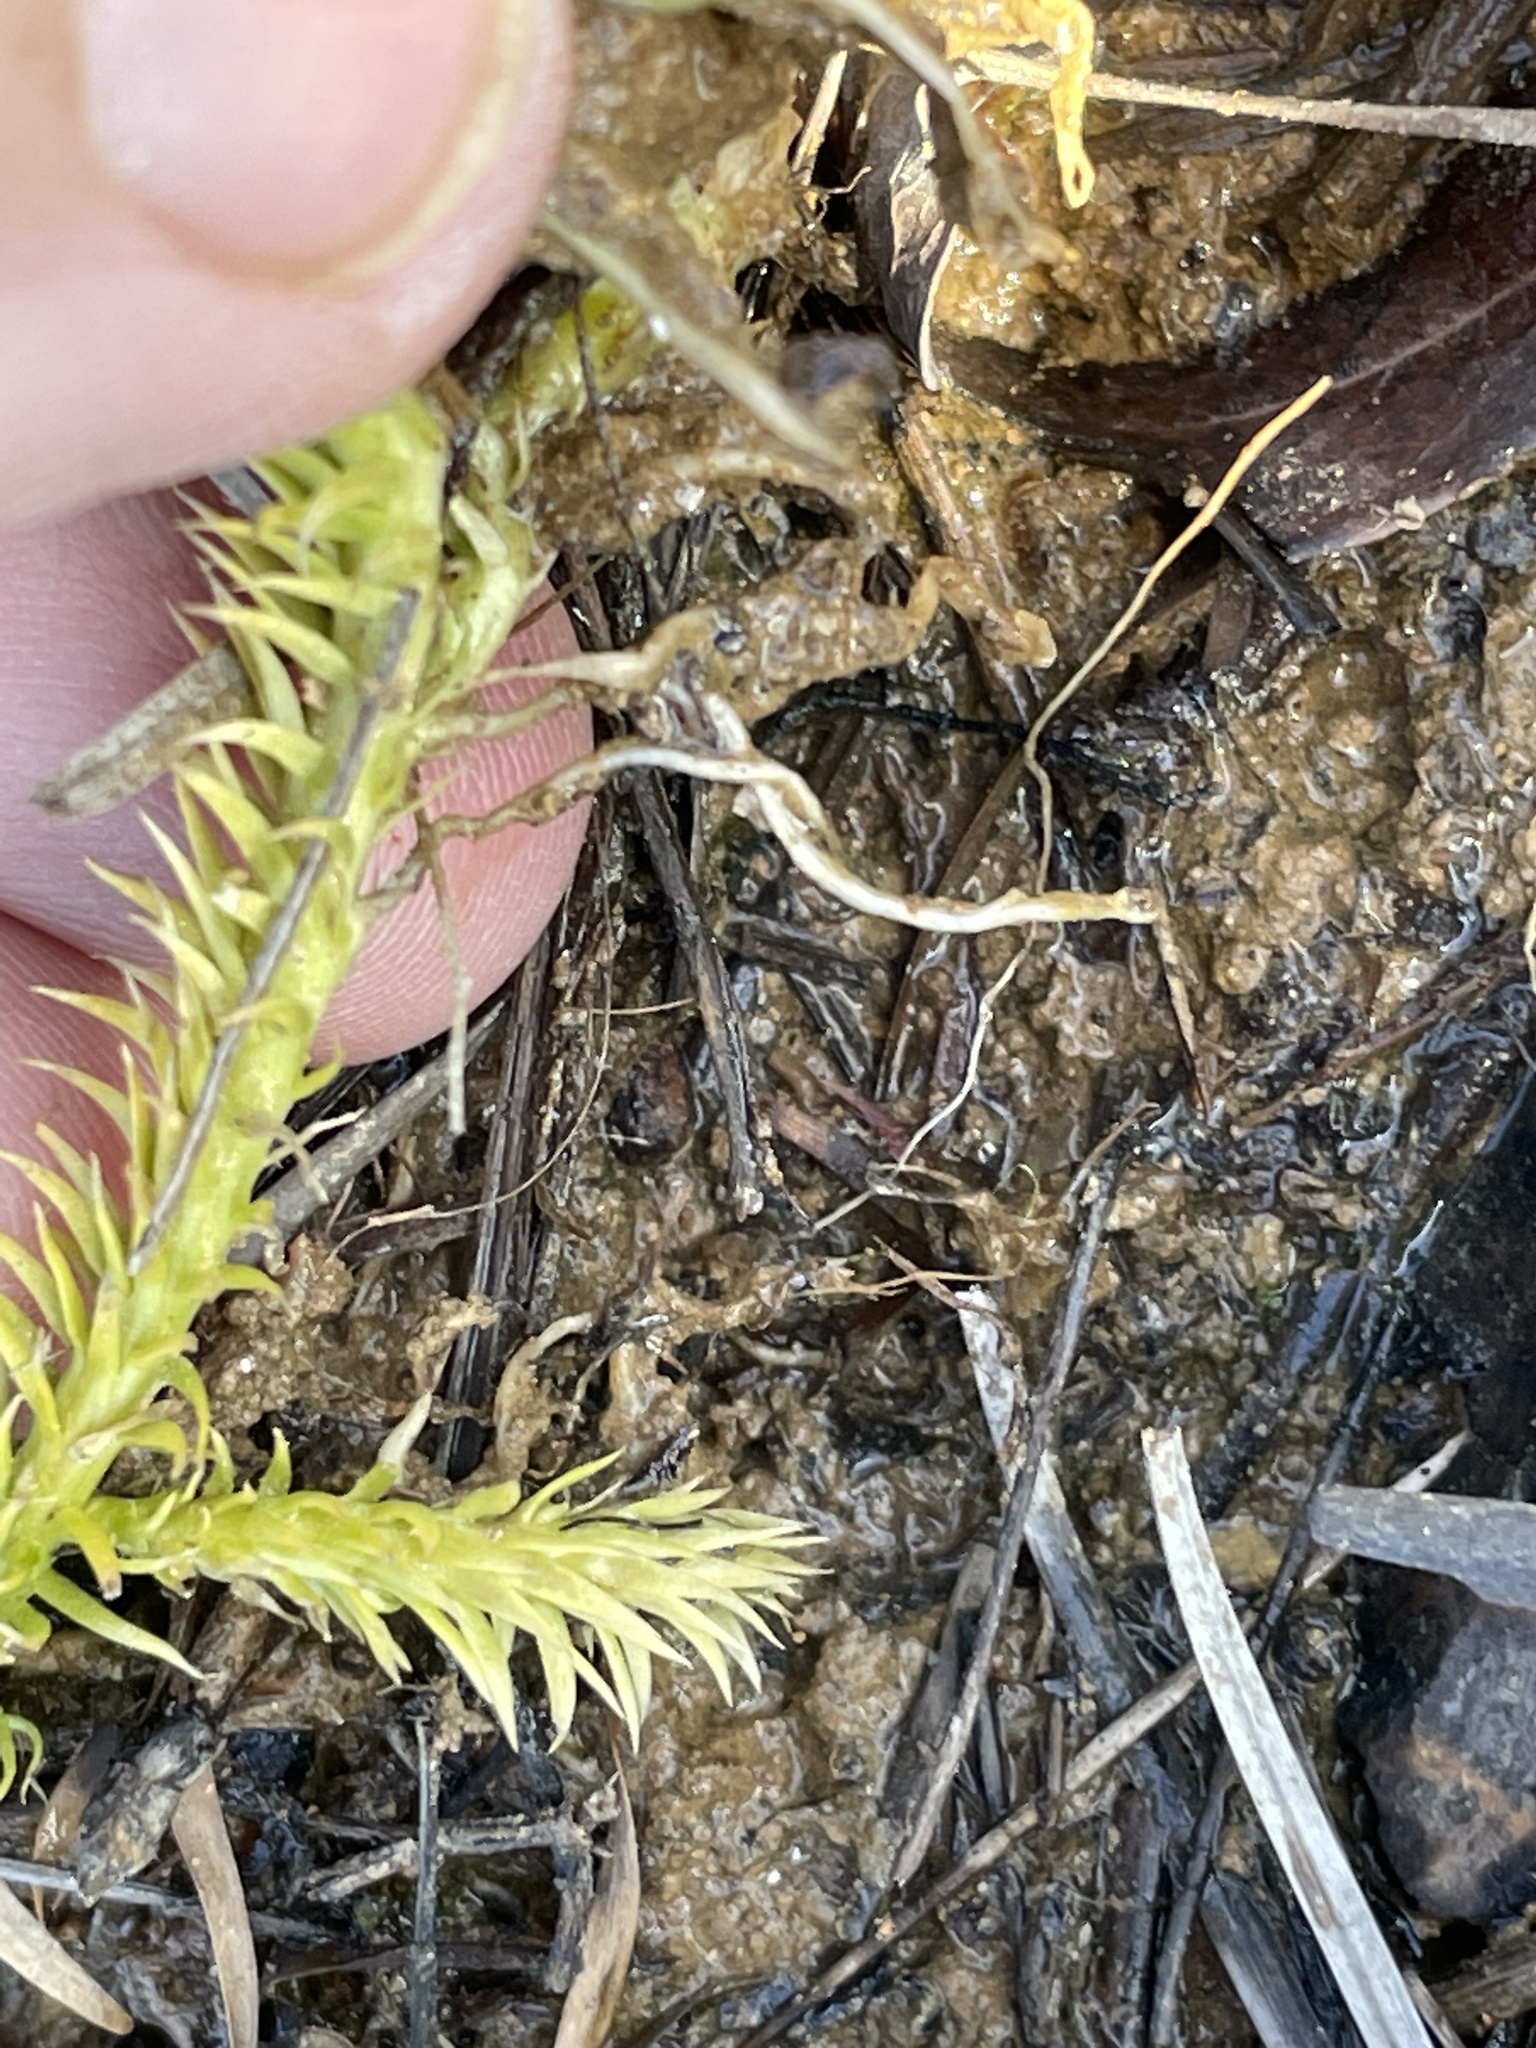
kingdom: Plantae
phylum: Tracheophyta
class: Lycopodiopsida
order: Lycopodiales
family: Lycopodiaceae
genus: Lycopodiella
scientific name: Lycopodiella appressa
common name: Appressed bog clubmoss
